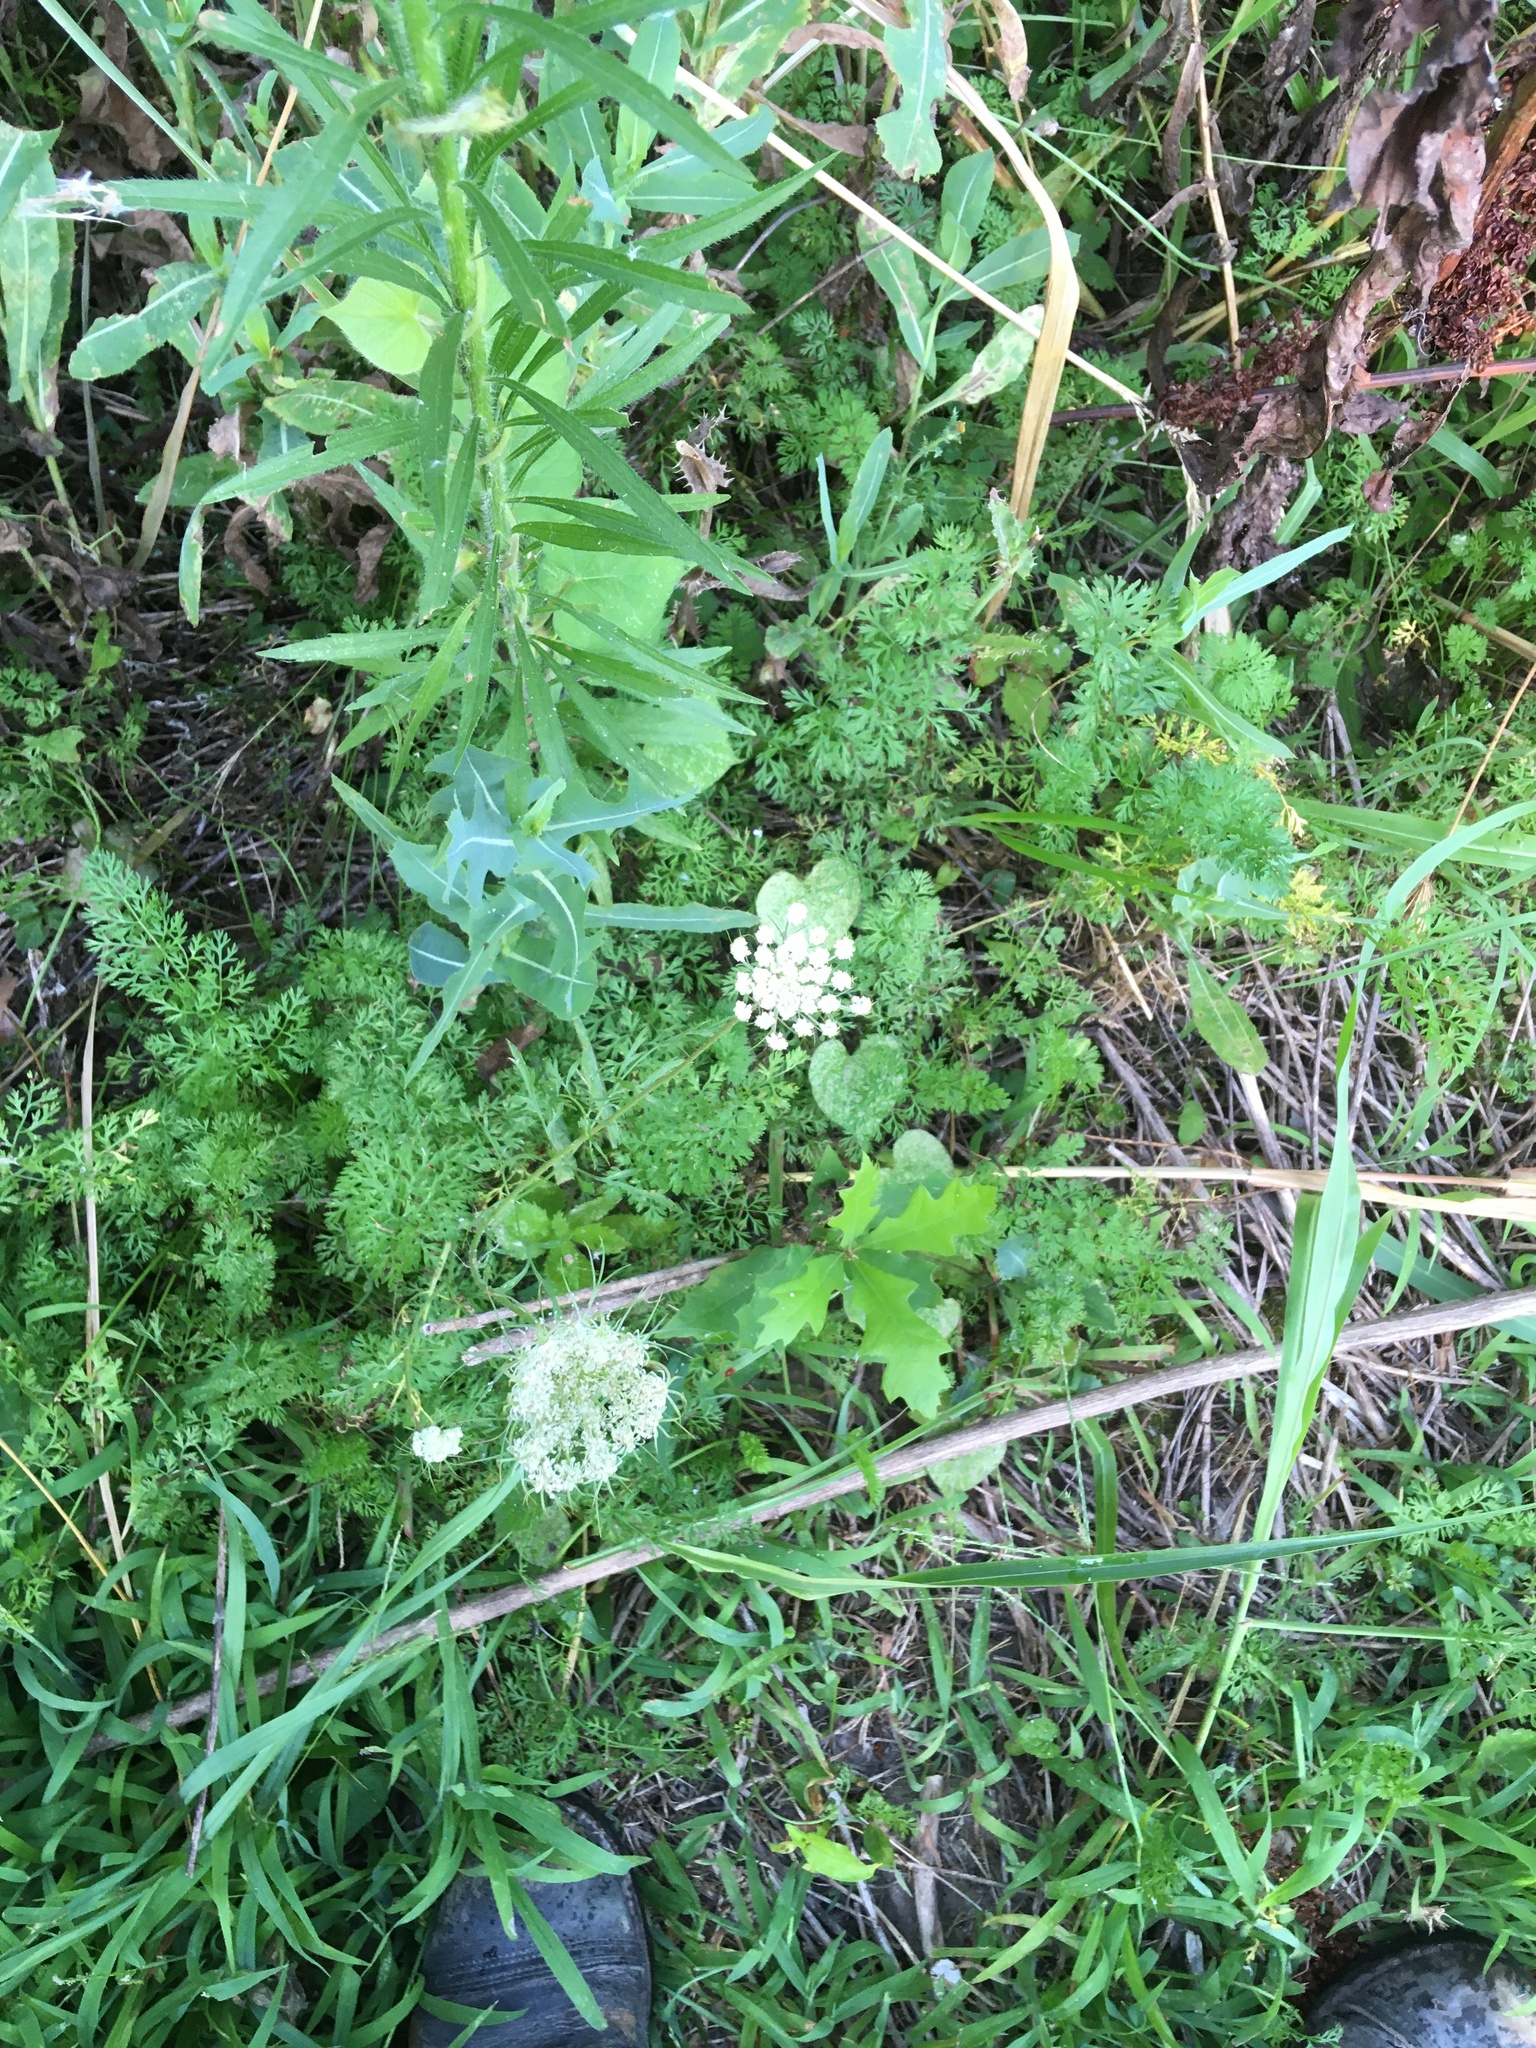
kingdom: Plantae
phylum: Tracheophyta
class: Magnoliopsida
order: Apiales
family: Apiaceae
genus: Daucus
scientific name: Daucus carota
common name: Wild carrot
